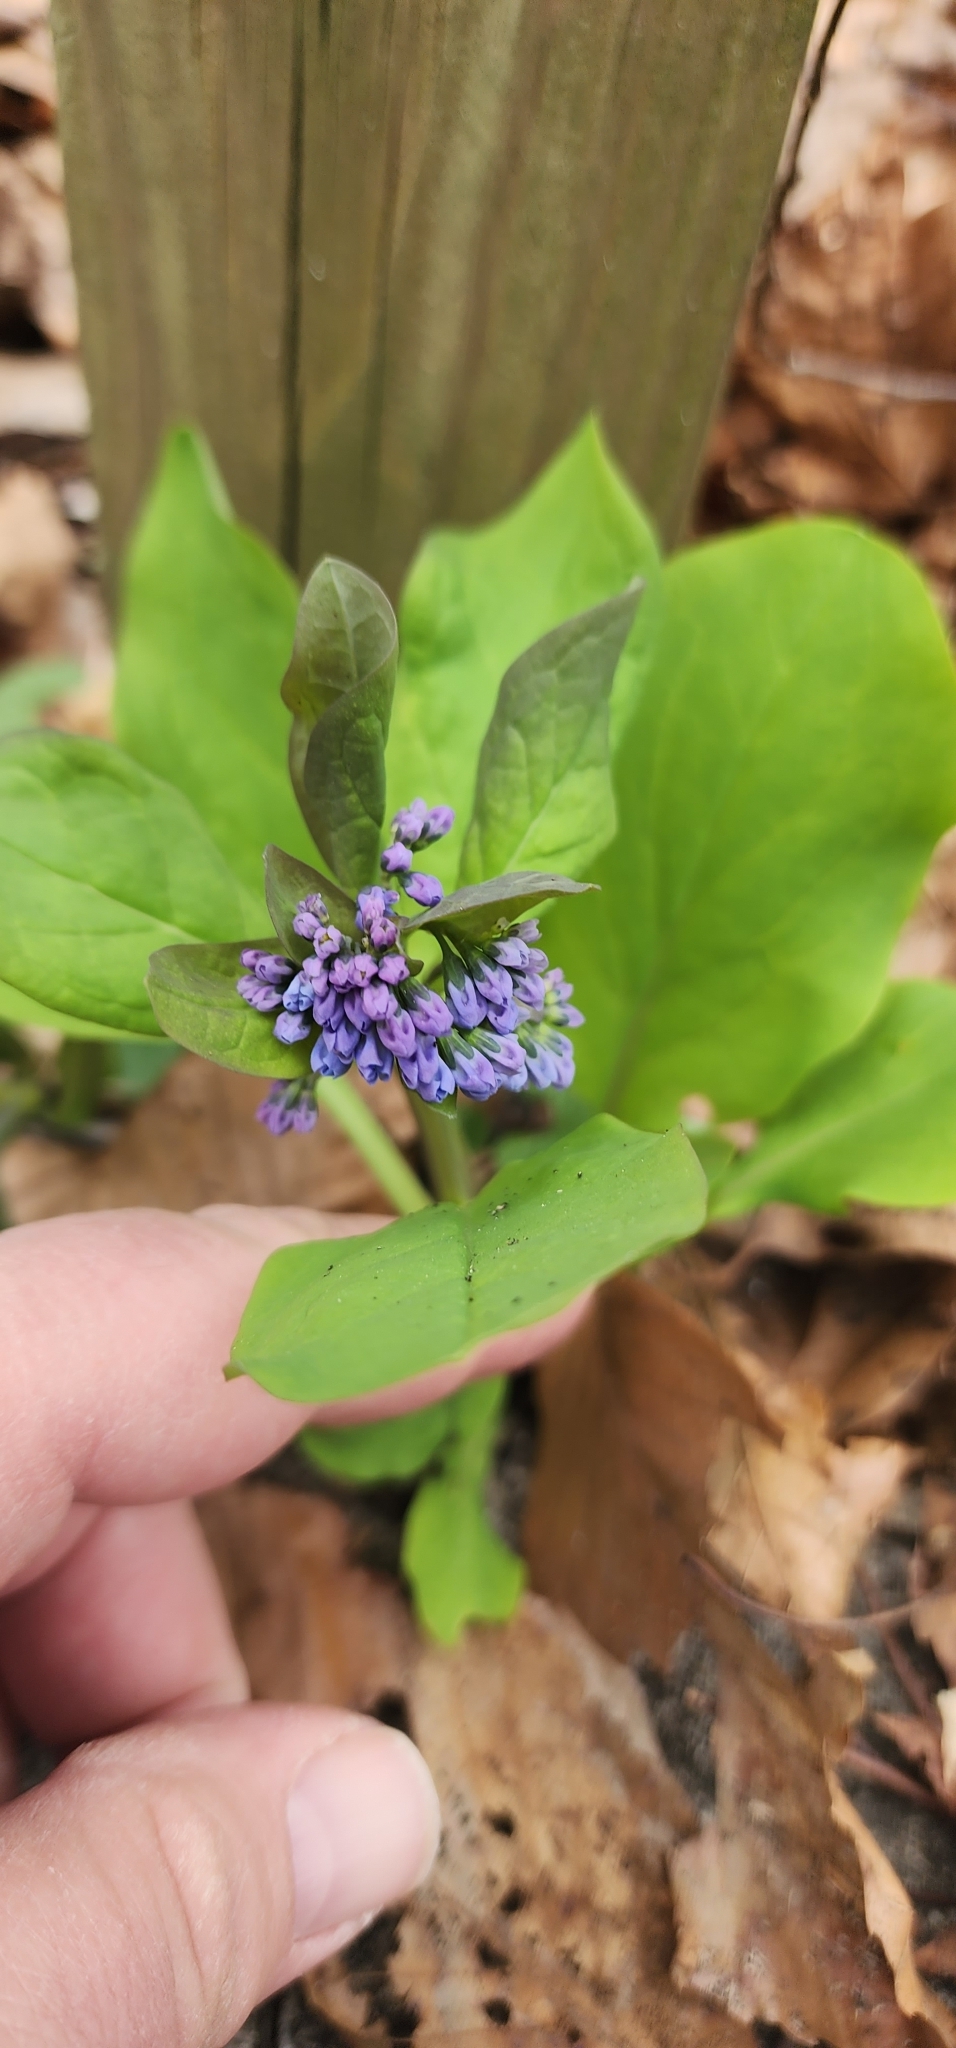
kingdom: Plantae
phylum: Tracheophyta
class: Magnoliopsida
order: Boraginales
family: Boraginaceae
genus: Mertensia
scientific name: Mertensia virginica
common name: Virginia bluebells
